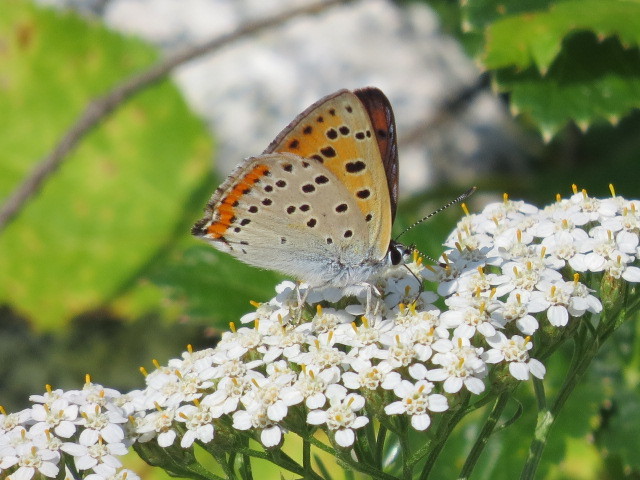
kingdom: Animalia
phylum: Arthropoda
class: Insecta
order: Lepidoptera
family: Lycaenidae
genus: Lycaena
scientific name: Lycaena alciphron
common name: Purple-shot copper
